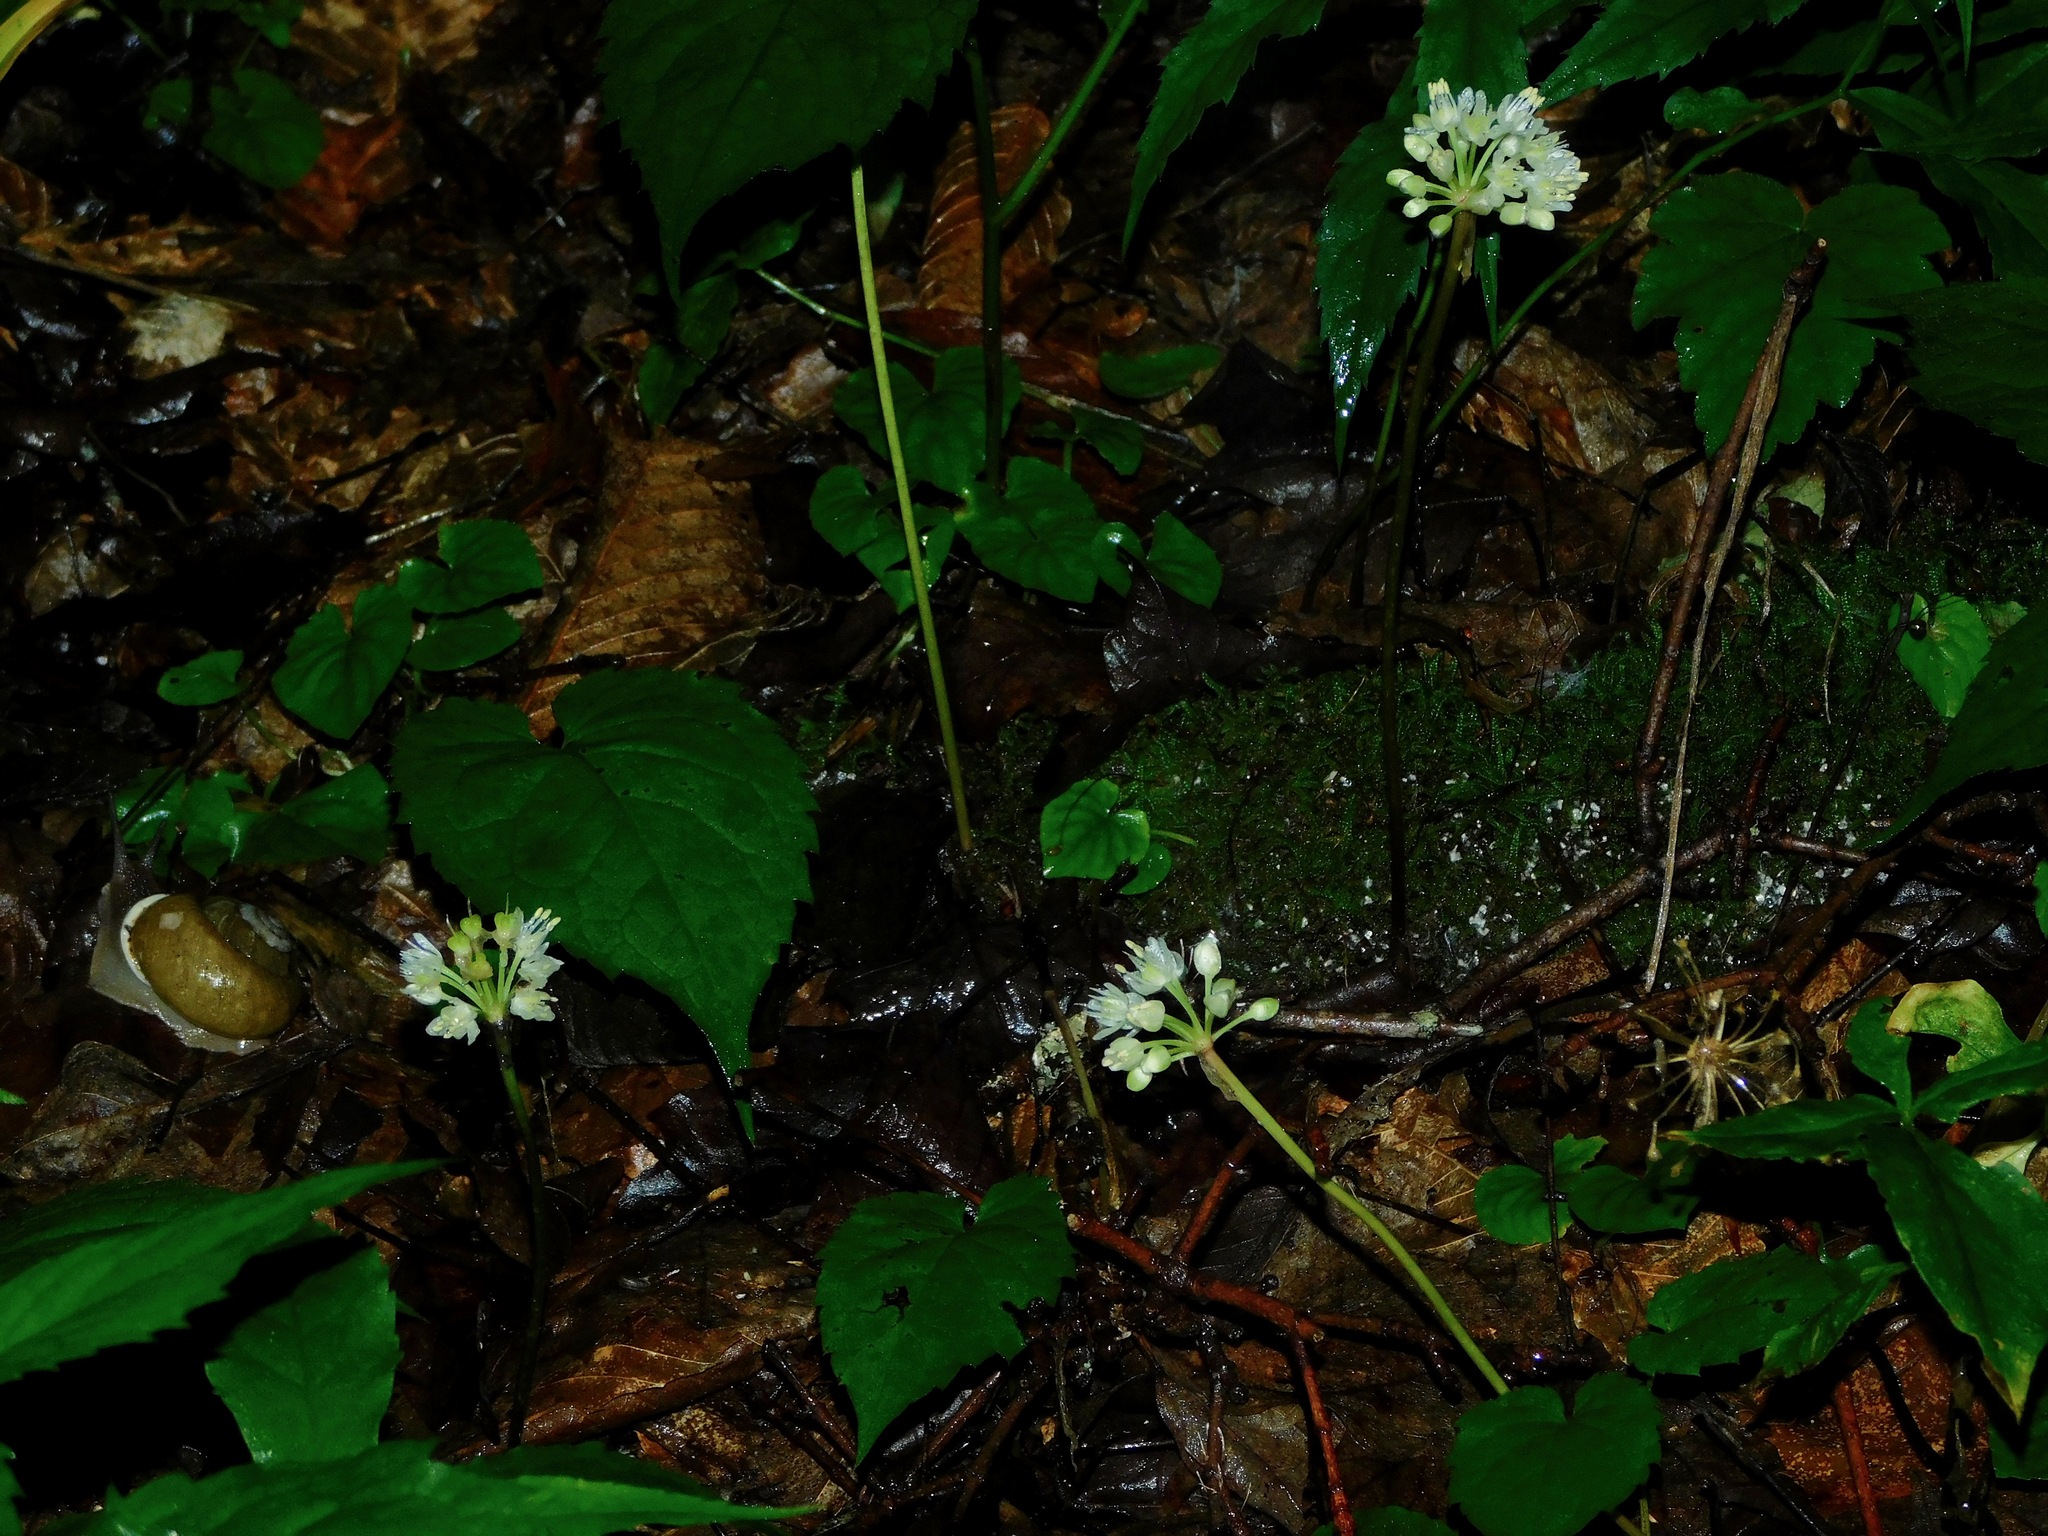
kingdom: Plantae
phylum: Tracheophyta
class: Liliopsida
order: Asparagales
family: Amaryllidaceae
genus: Allium
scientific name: Allium tricoccum
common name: Ramp
